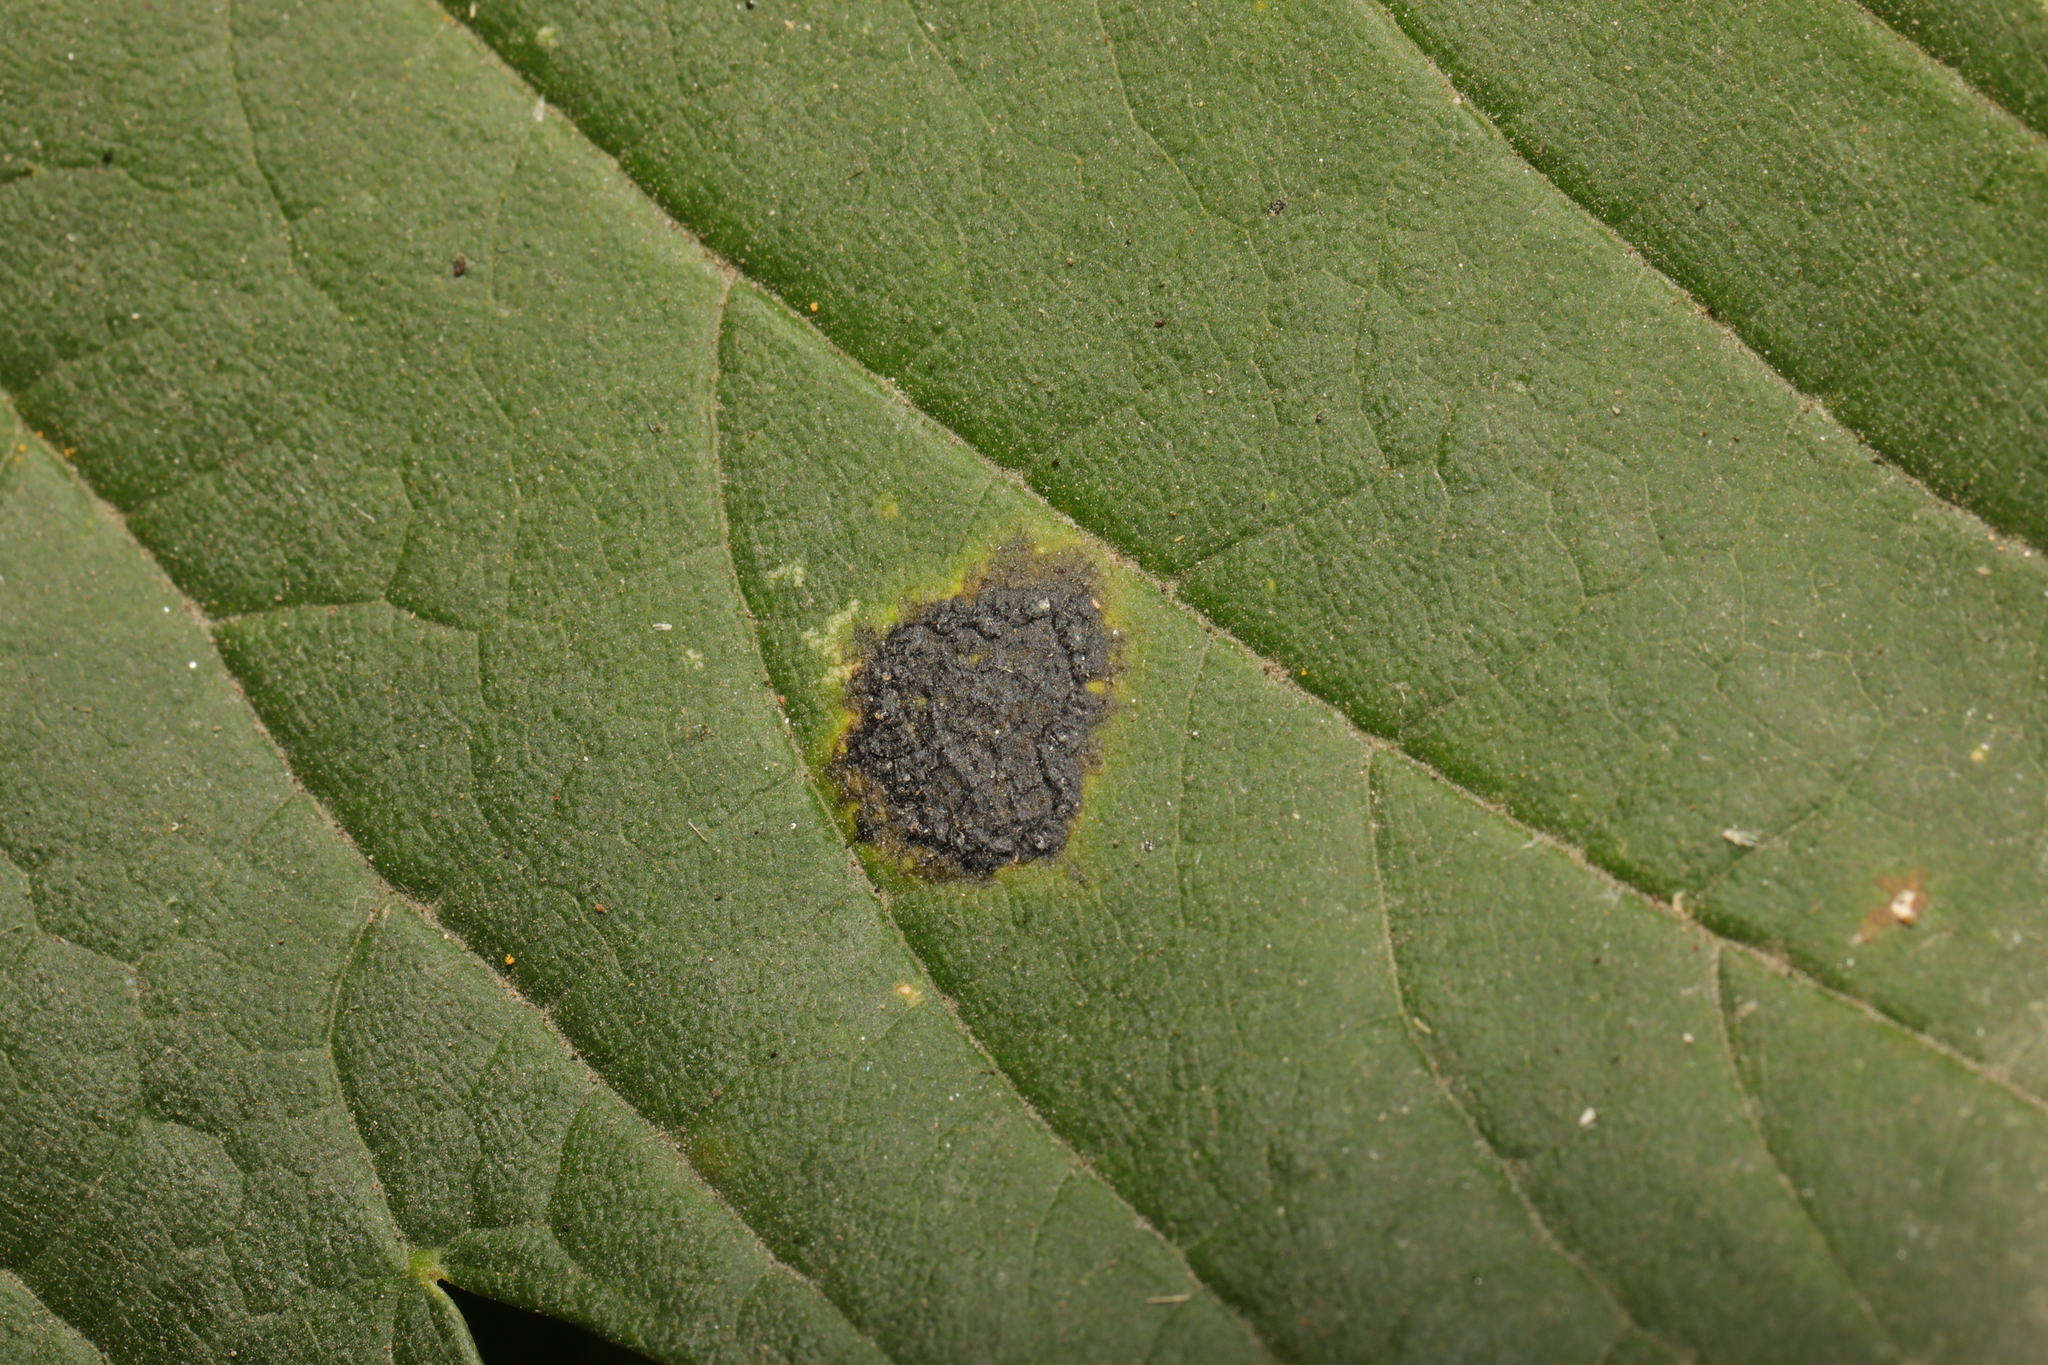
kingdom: Fungi
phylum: Ascomycota
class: Leotiomycetes
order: Rhytismatales
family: Rhytismataceae
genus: Rhytisma
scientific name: Rhytisma acerinum
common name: European tar spot
